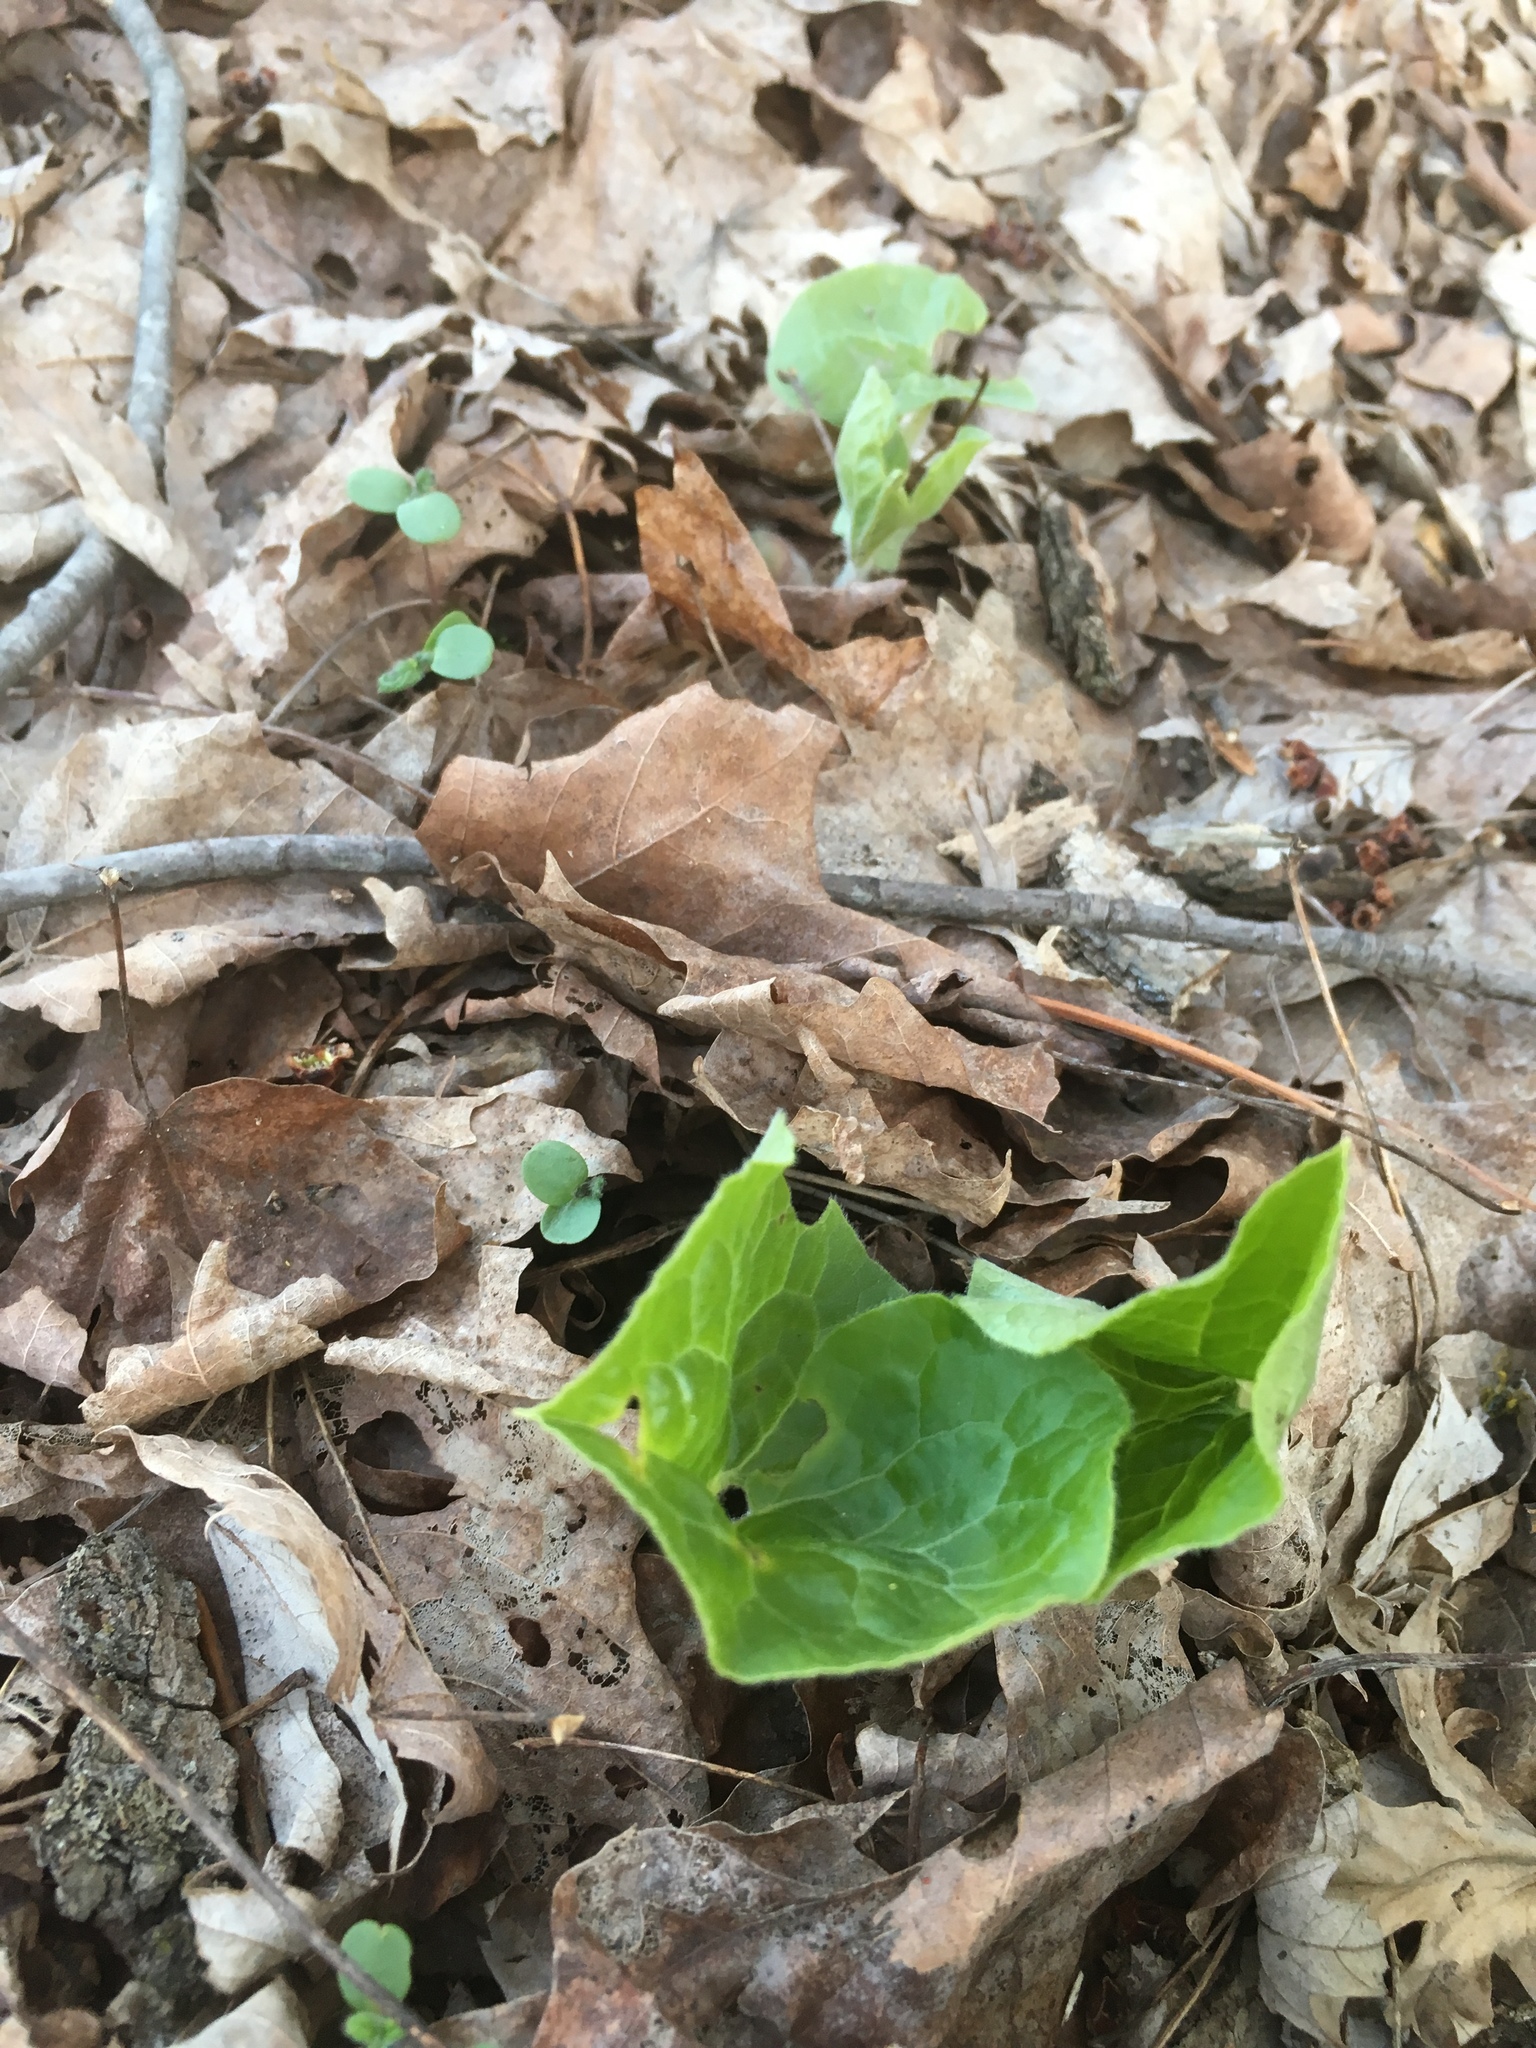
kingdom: Plantae
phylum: Tracheophyta
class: Magnoliopsida
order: Piperales
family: Aristolochiaceae
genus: Asarum
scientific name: Asarum canadense
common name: Wild ginger
